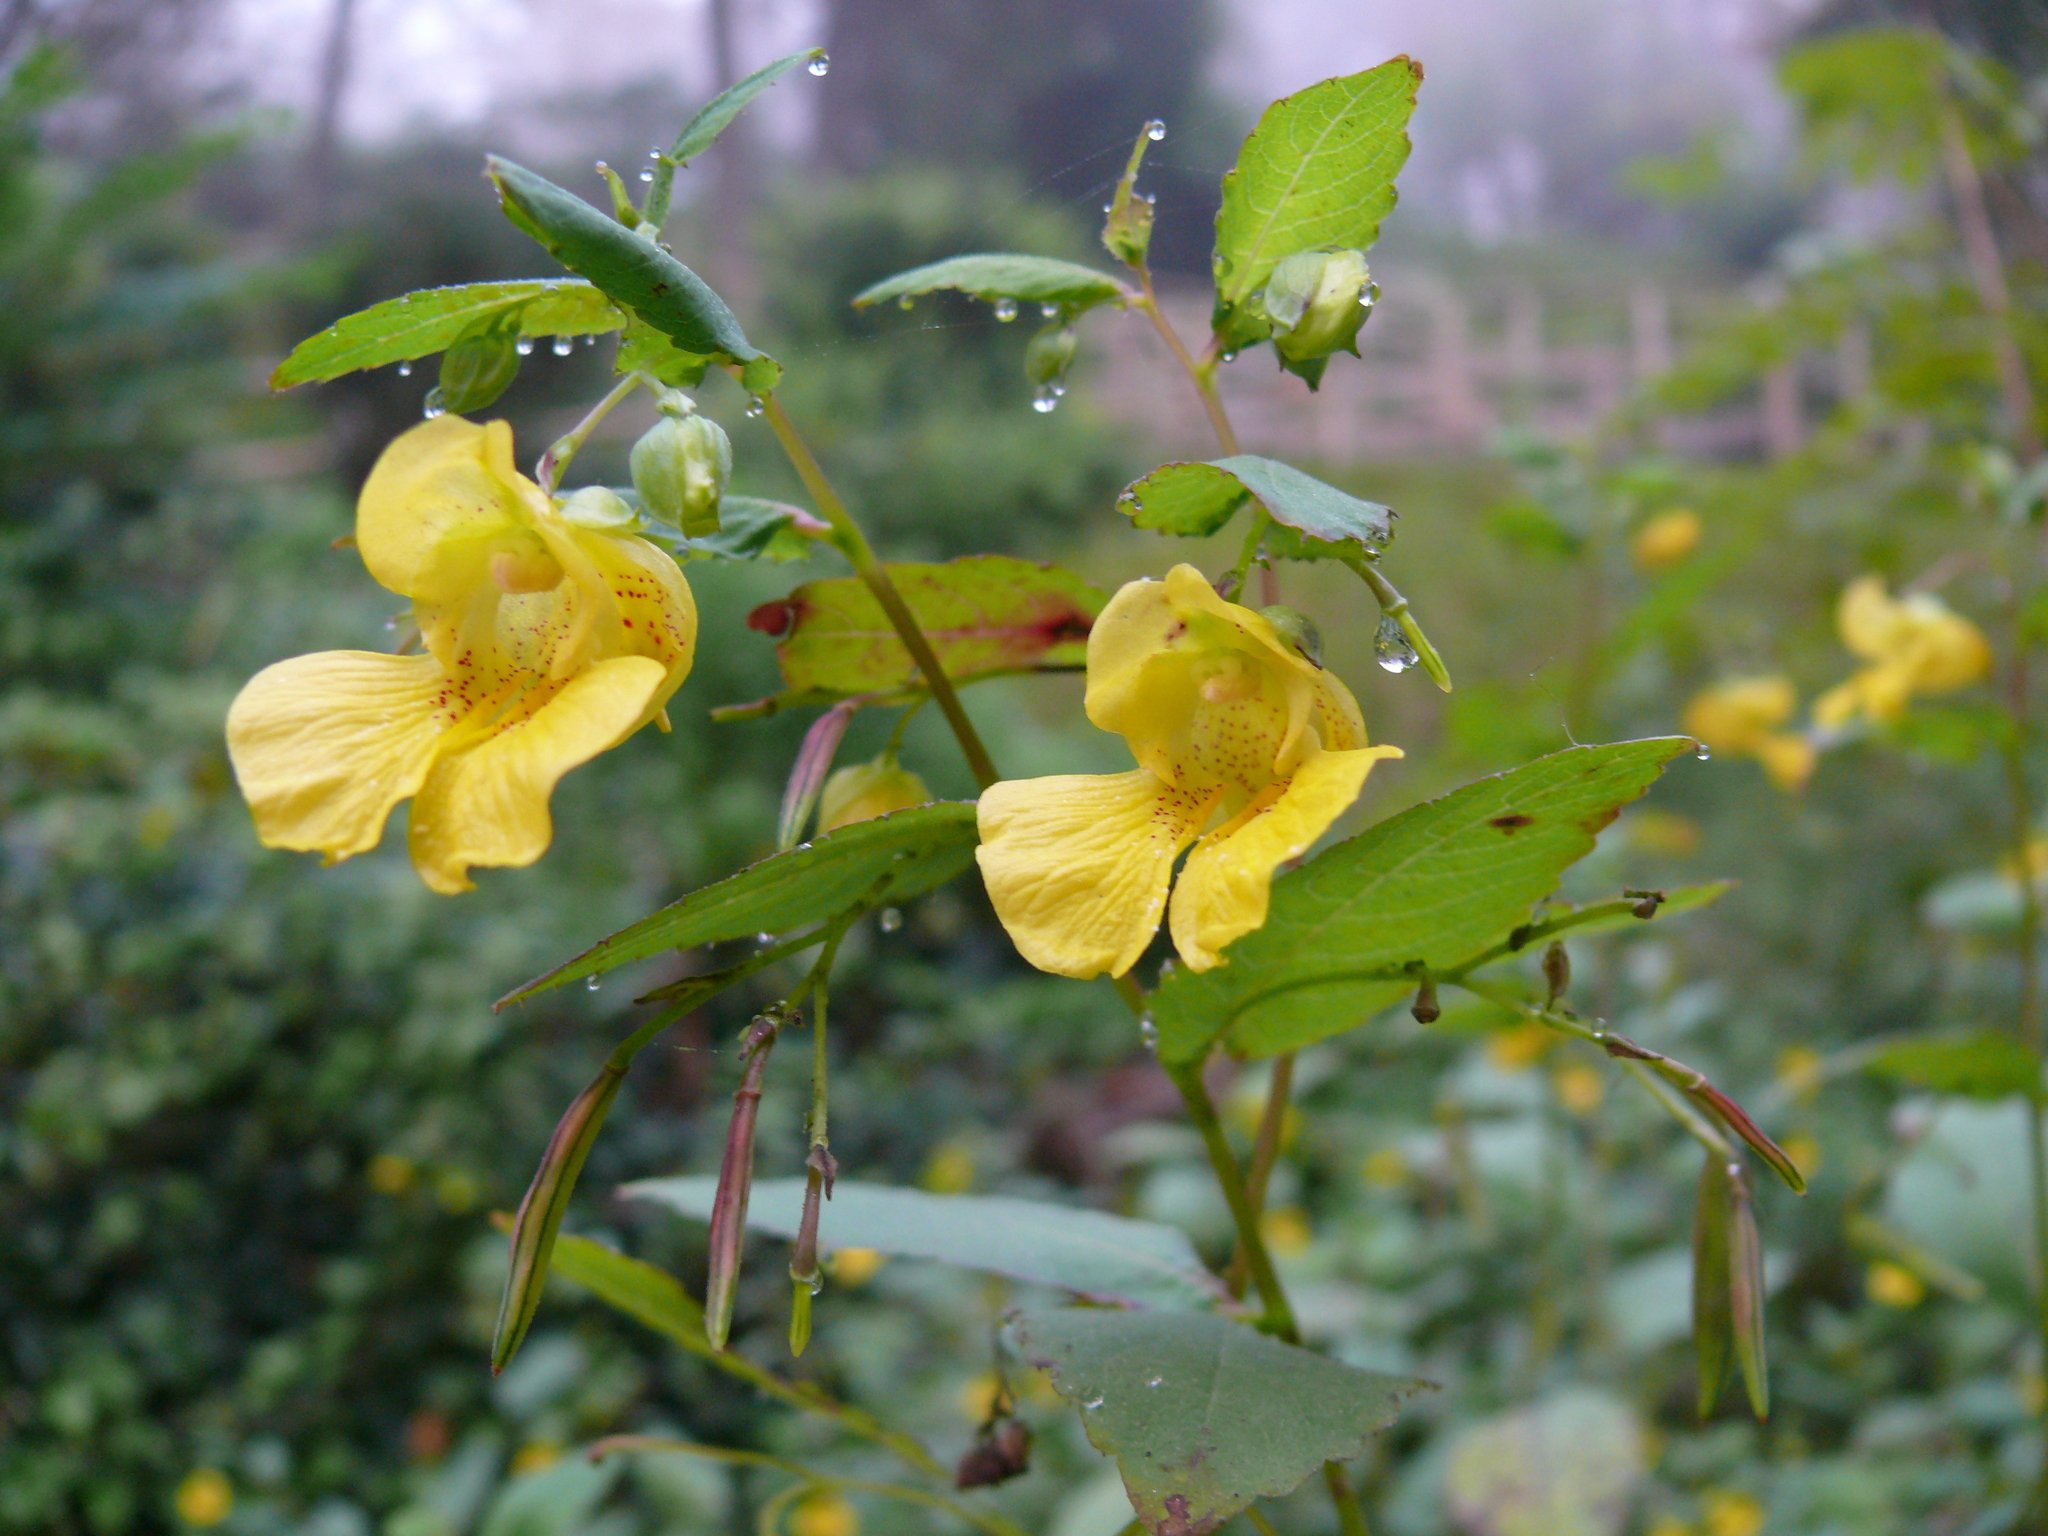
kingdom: Plantae
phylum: Tracheophyta
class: Magnoliopsida
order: Ericales
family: Balsaminaceae
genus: Impatiens
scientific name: Impatiens pallida
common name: Pale snapweed
